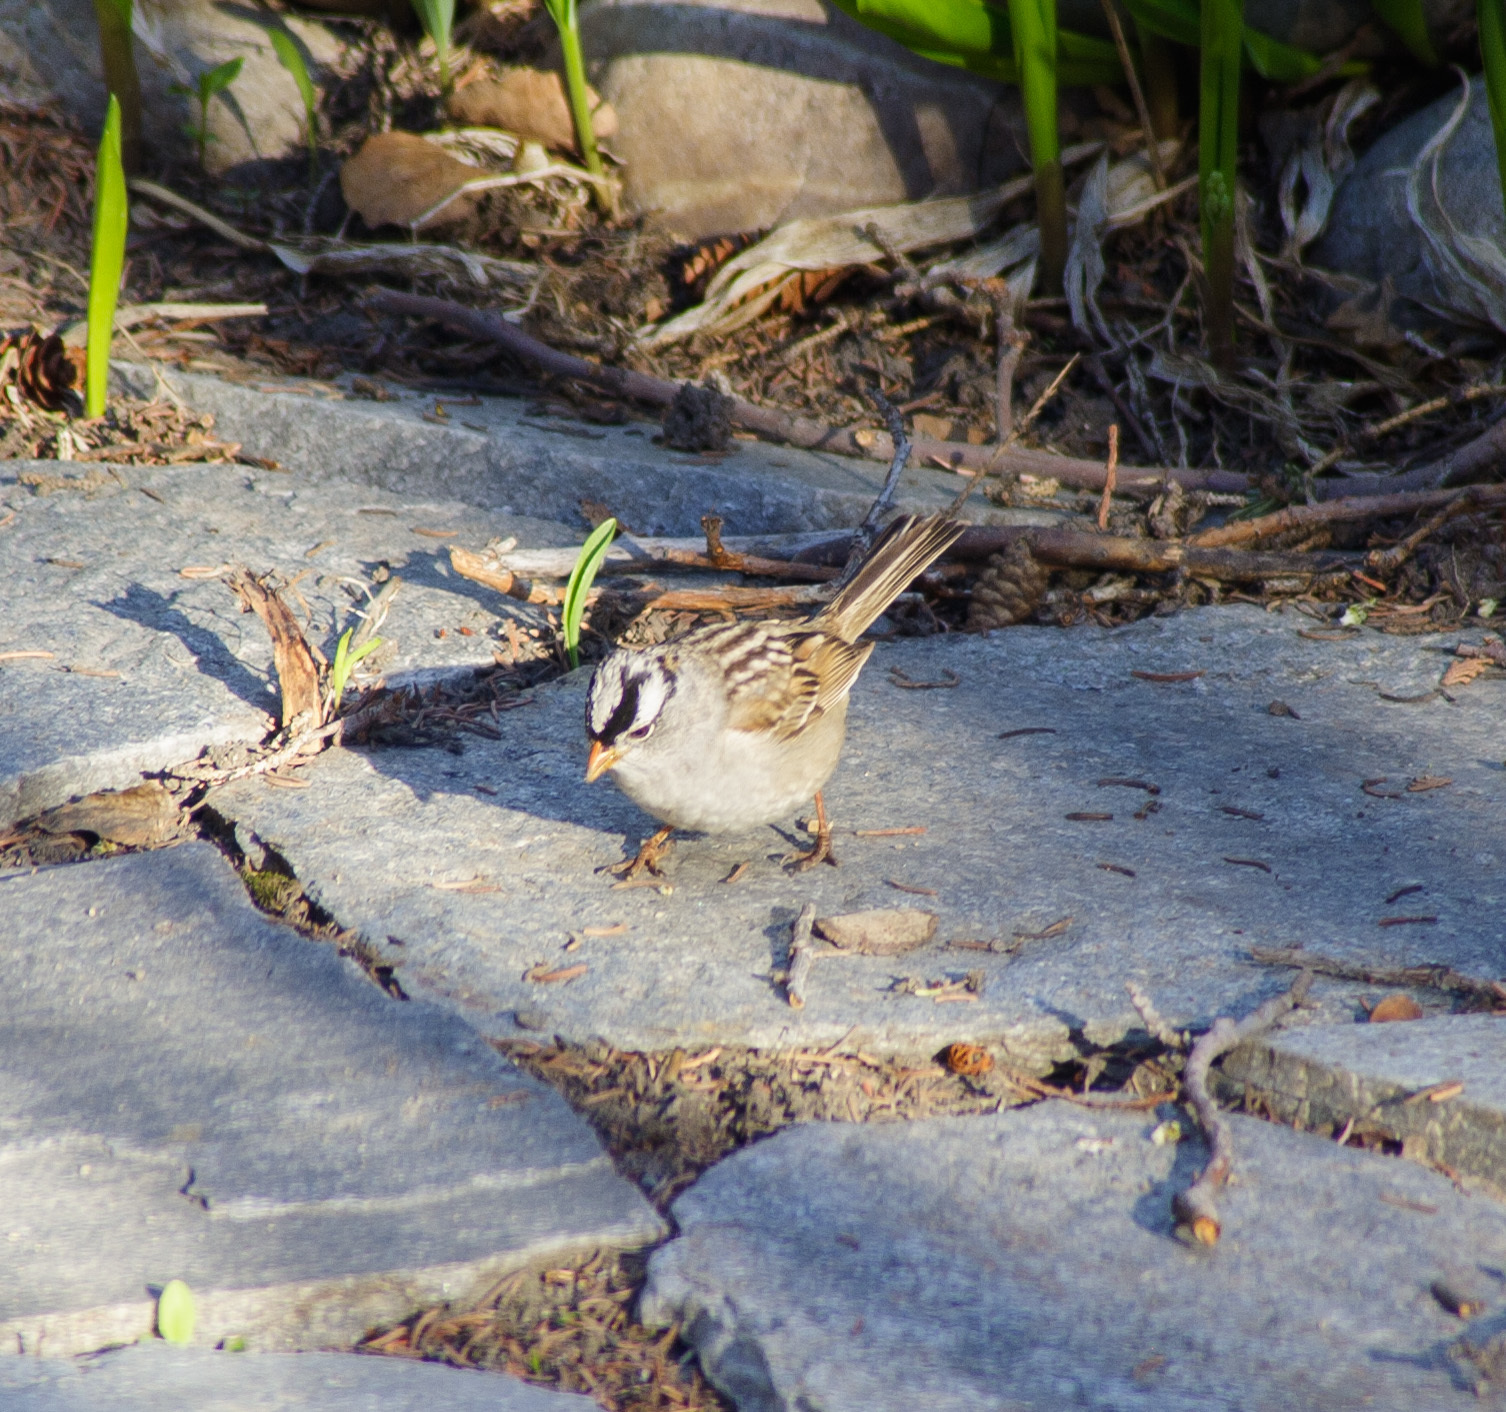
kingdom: Animalia
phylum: Chordata
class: Aves
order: Passeriformes
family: Passerellidae
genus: Zonotrichia
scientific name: Zonotrichia leucophrys
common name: White-crowned sparrow
